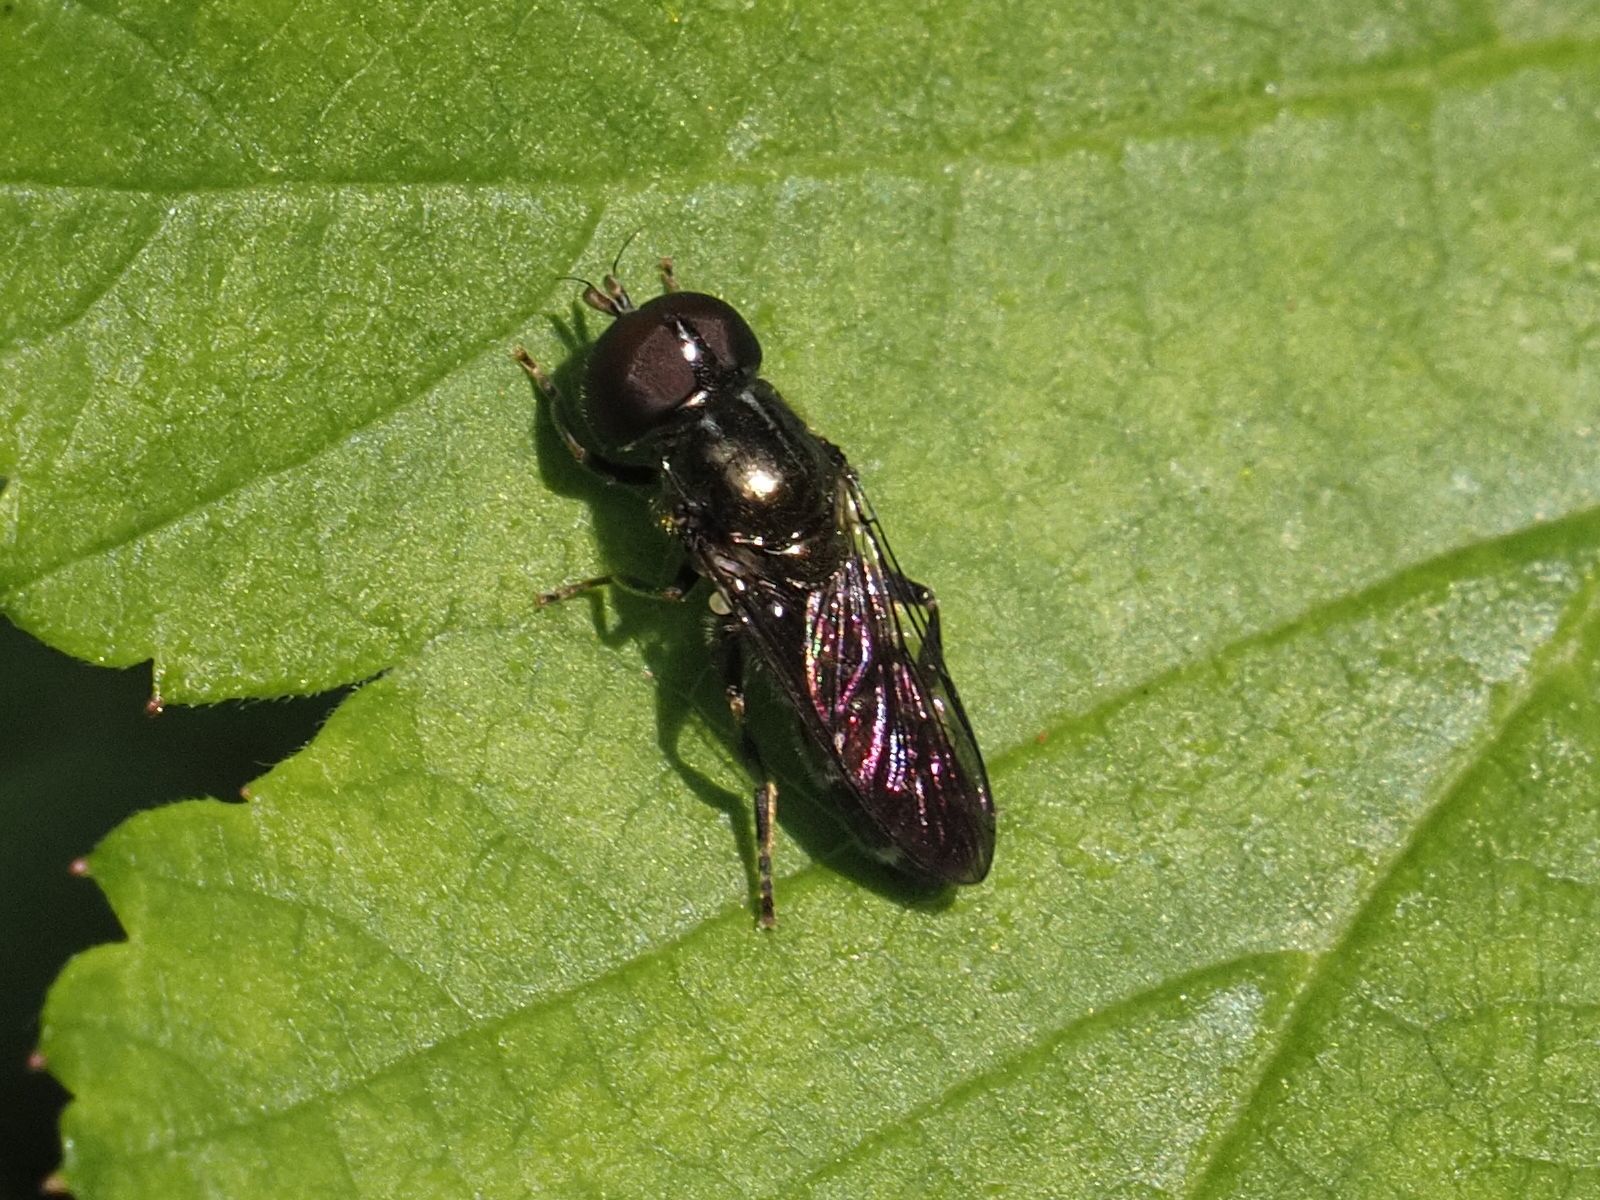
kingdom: Animalia
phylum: Arthropoda
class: Insecta
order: Diptera
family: Syrphidae
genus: Eumerus
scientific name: Eumerus ornatus
